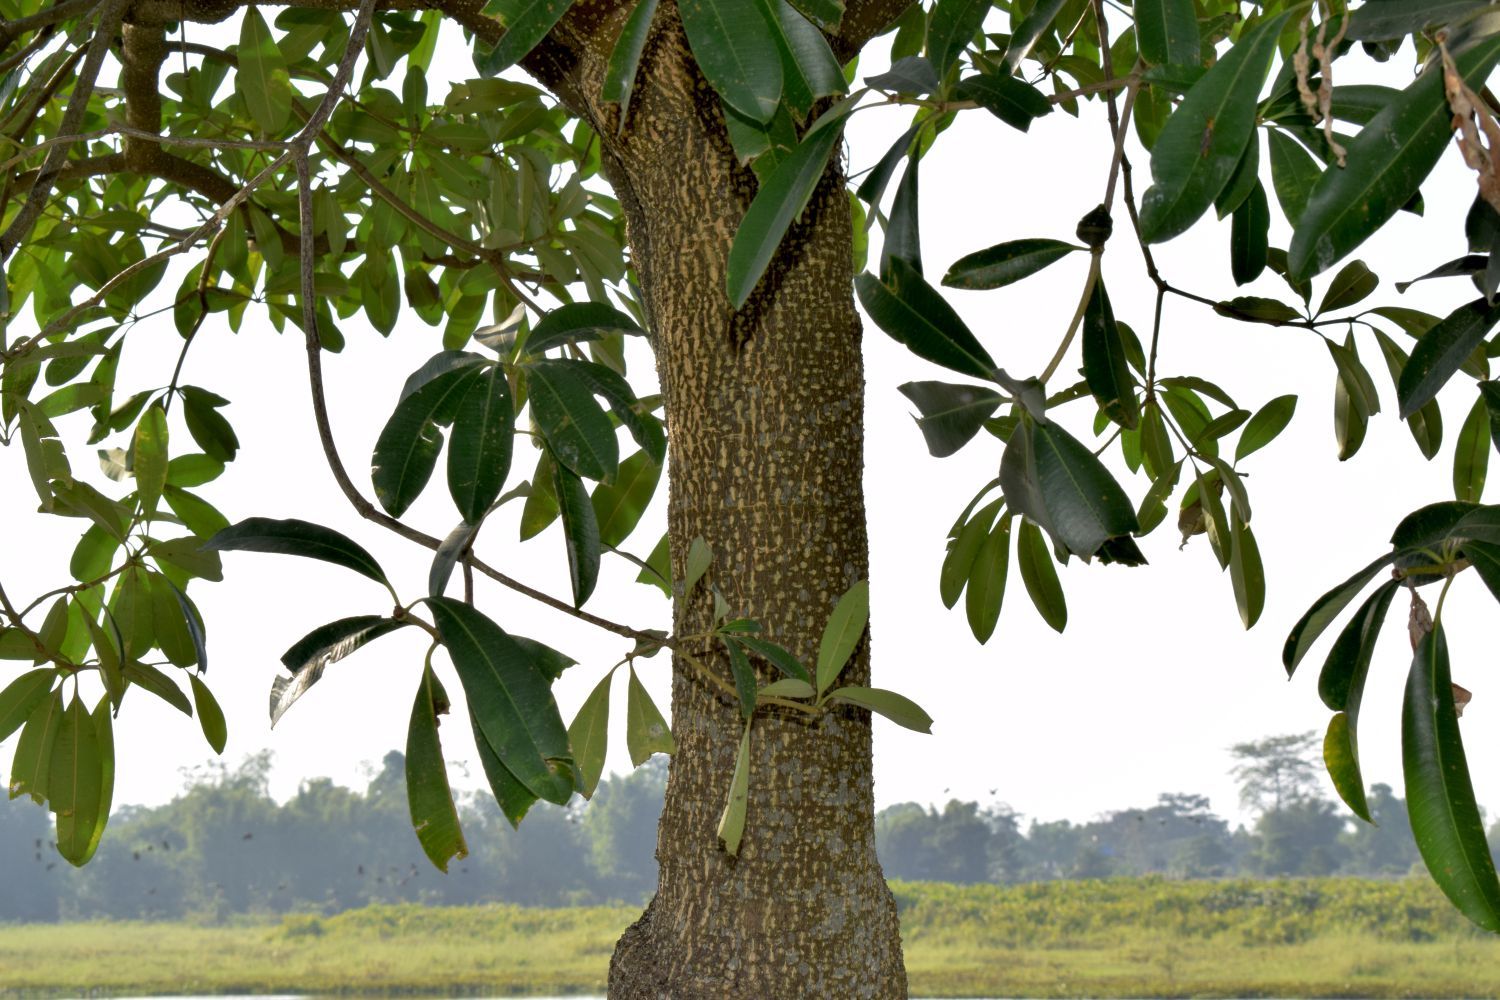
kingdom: Plantae
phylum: Tracheophyta
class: Magnoliopsida
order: Gentianales
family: Apocynaceae
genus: Alstonia
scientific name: Alstonia scholaris
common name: White cheesewood
